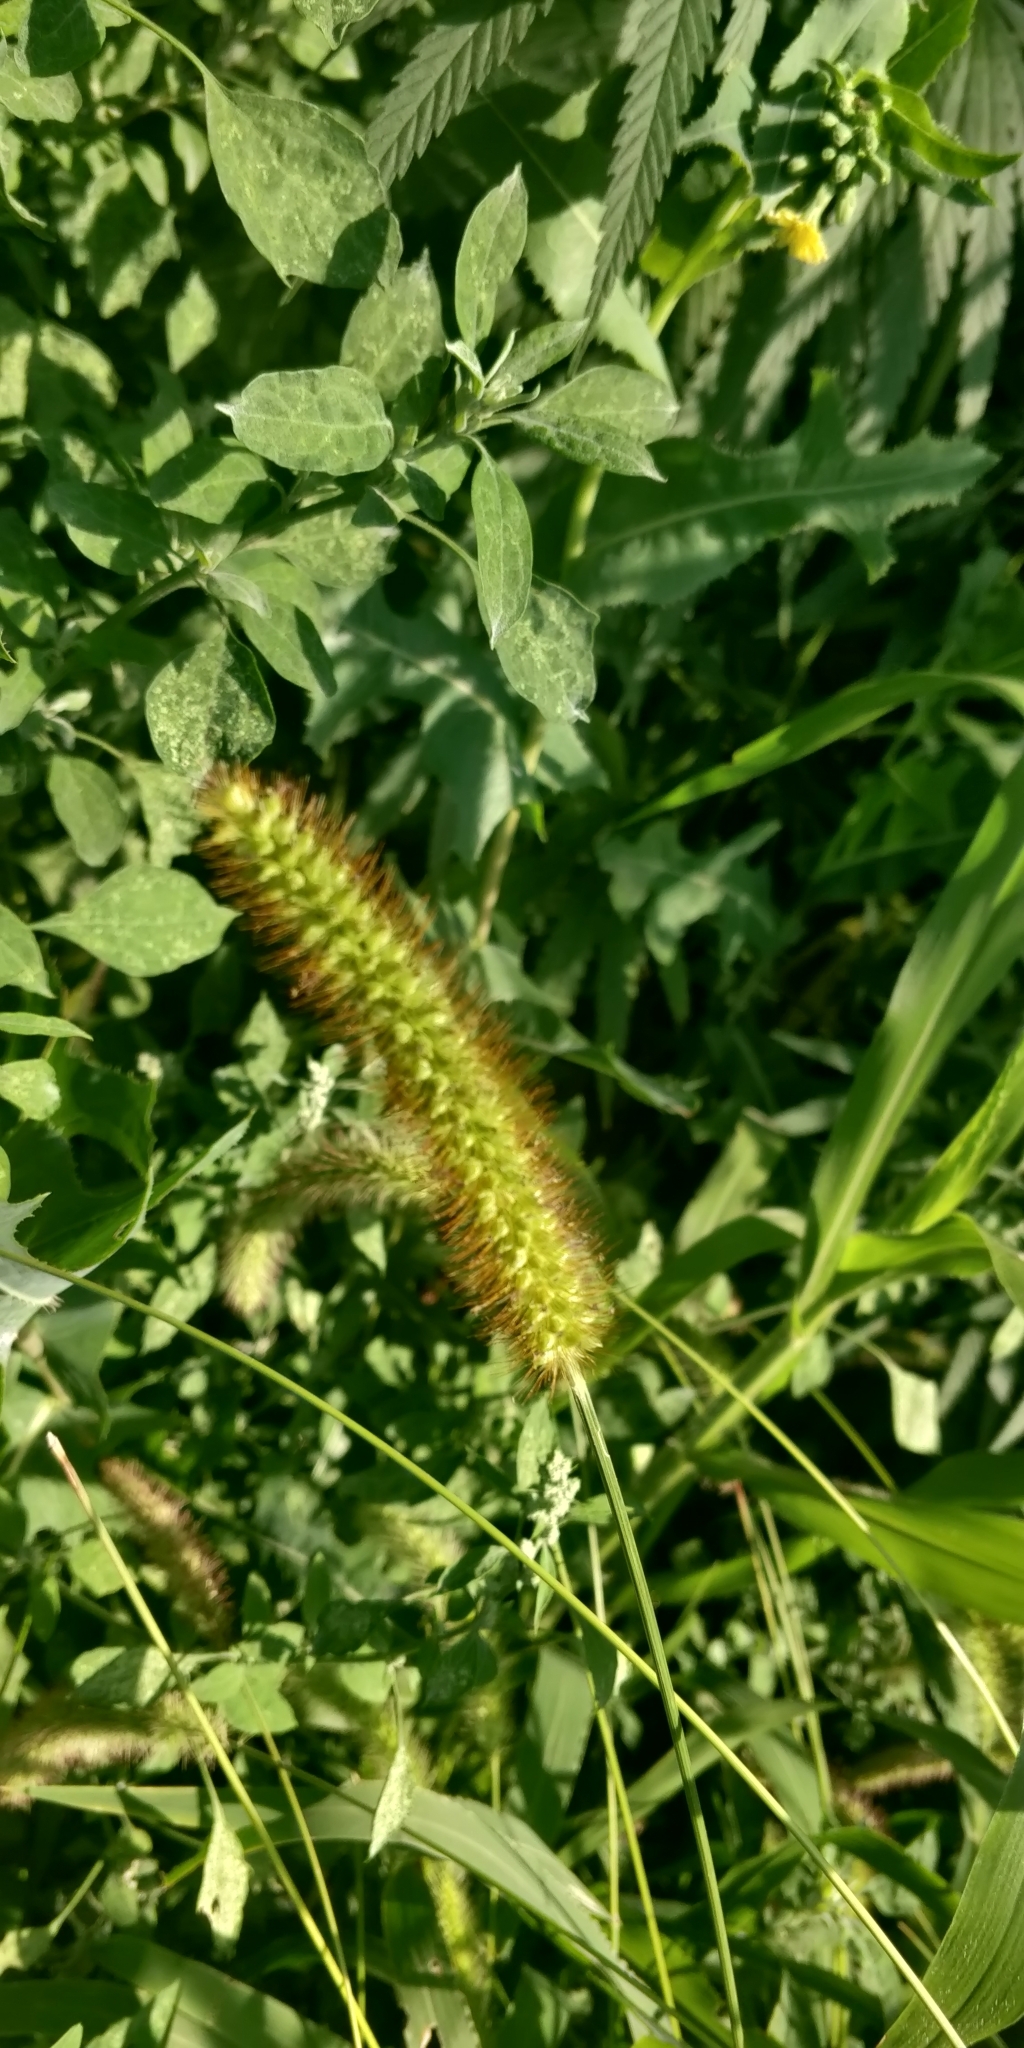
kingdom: Plantae
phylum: Tracheophyta
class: Liliopsida
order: Poales
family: Poaceae
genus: Setaria
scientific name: Setaria pumila
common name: Yellow bristle-grass
